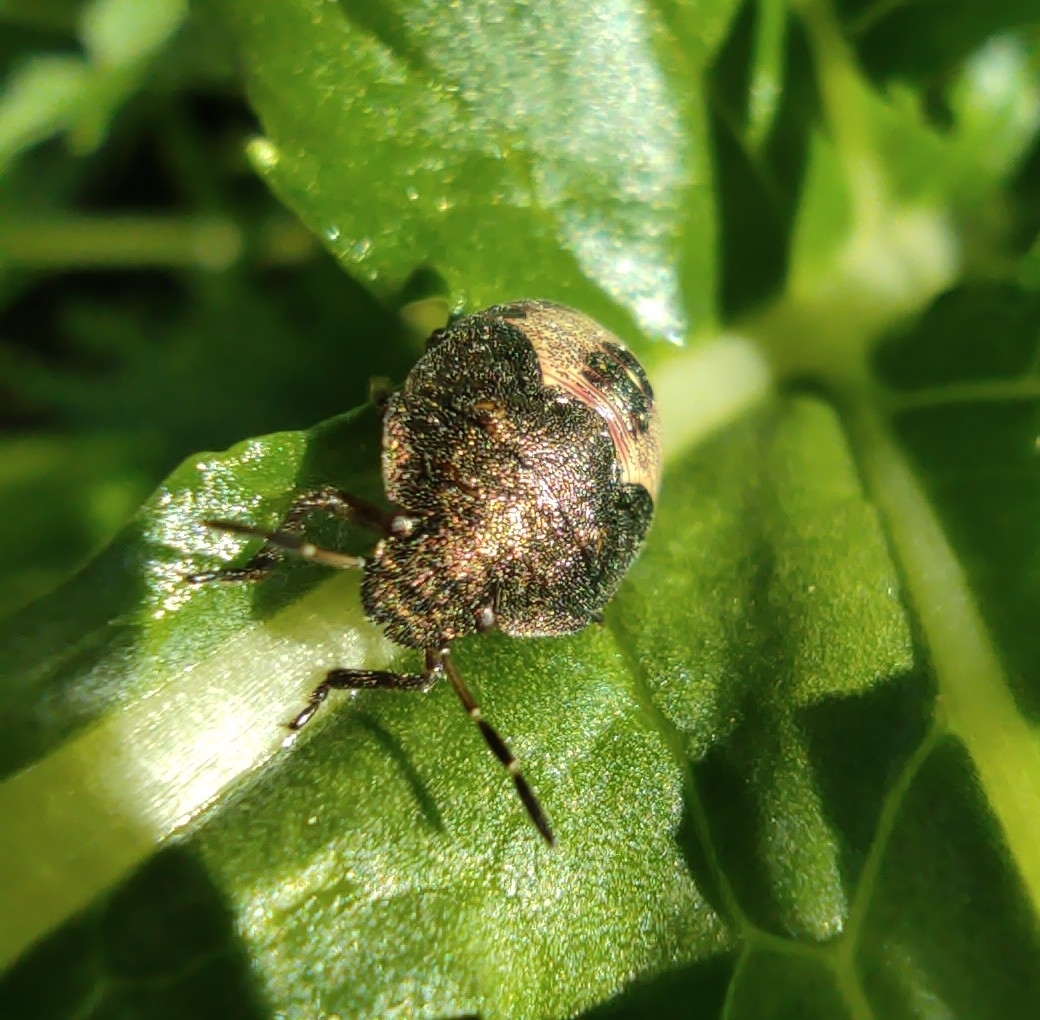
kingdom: Animalia
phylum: Arthropoda
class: Insecta
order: Hemiptera
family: Pentatomidae
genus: Holcostethus
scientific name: Holcostethus strictus
